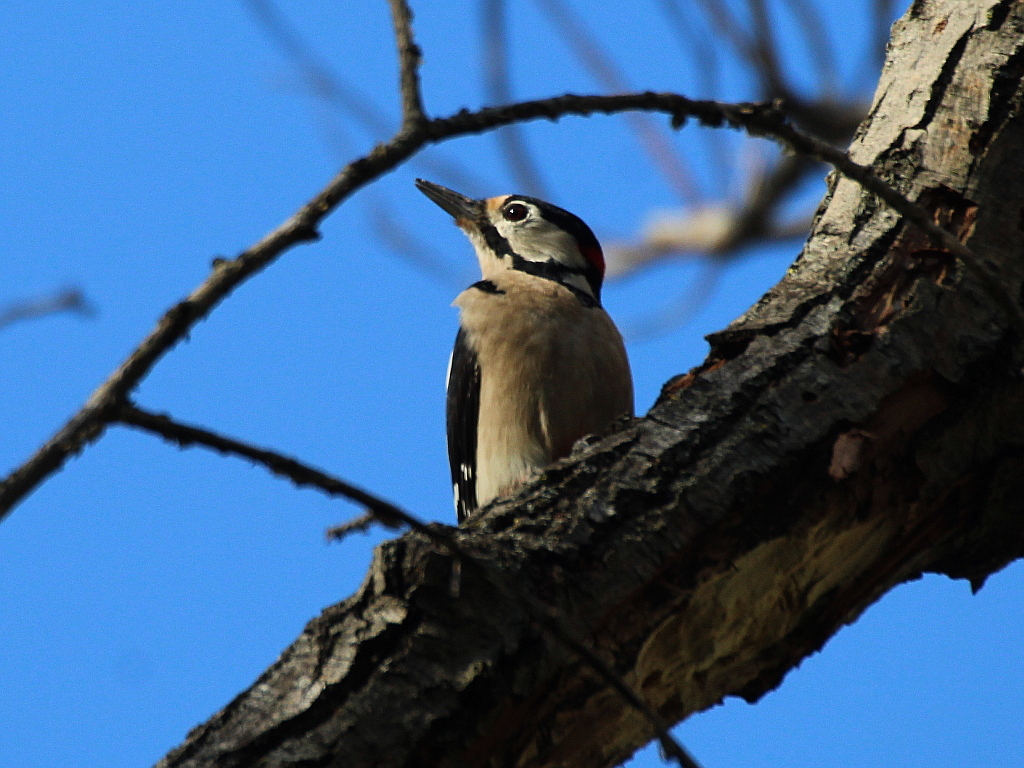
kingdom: Animalia
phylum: Chordata
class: Aves
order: Piciformes
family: Picidae
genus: Dendrocopos
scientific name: Dendrocopos major
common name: Great spotted woodpecker
